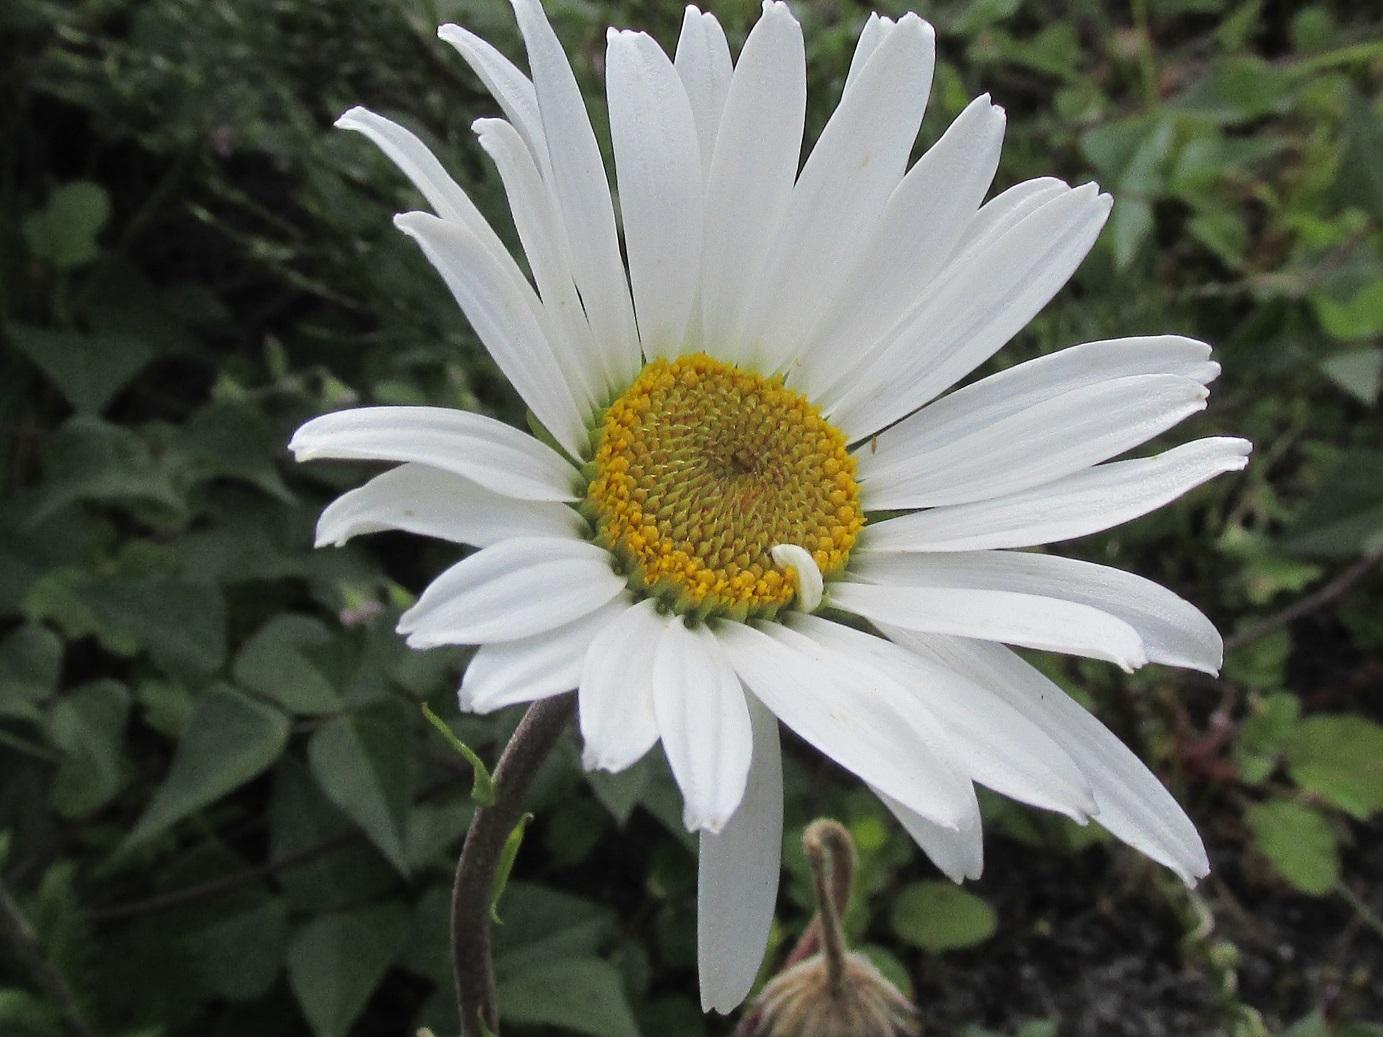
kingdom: Plantae
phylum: Tracheophyta
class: Magnoliopsida
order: Asterales
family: Asteraceae
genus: Osmitopsis
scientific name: Osmitopsis dentata
